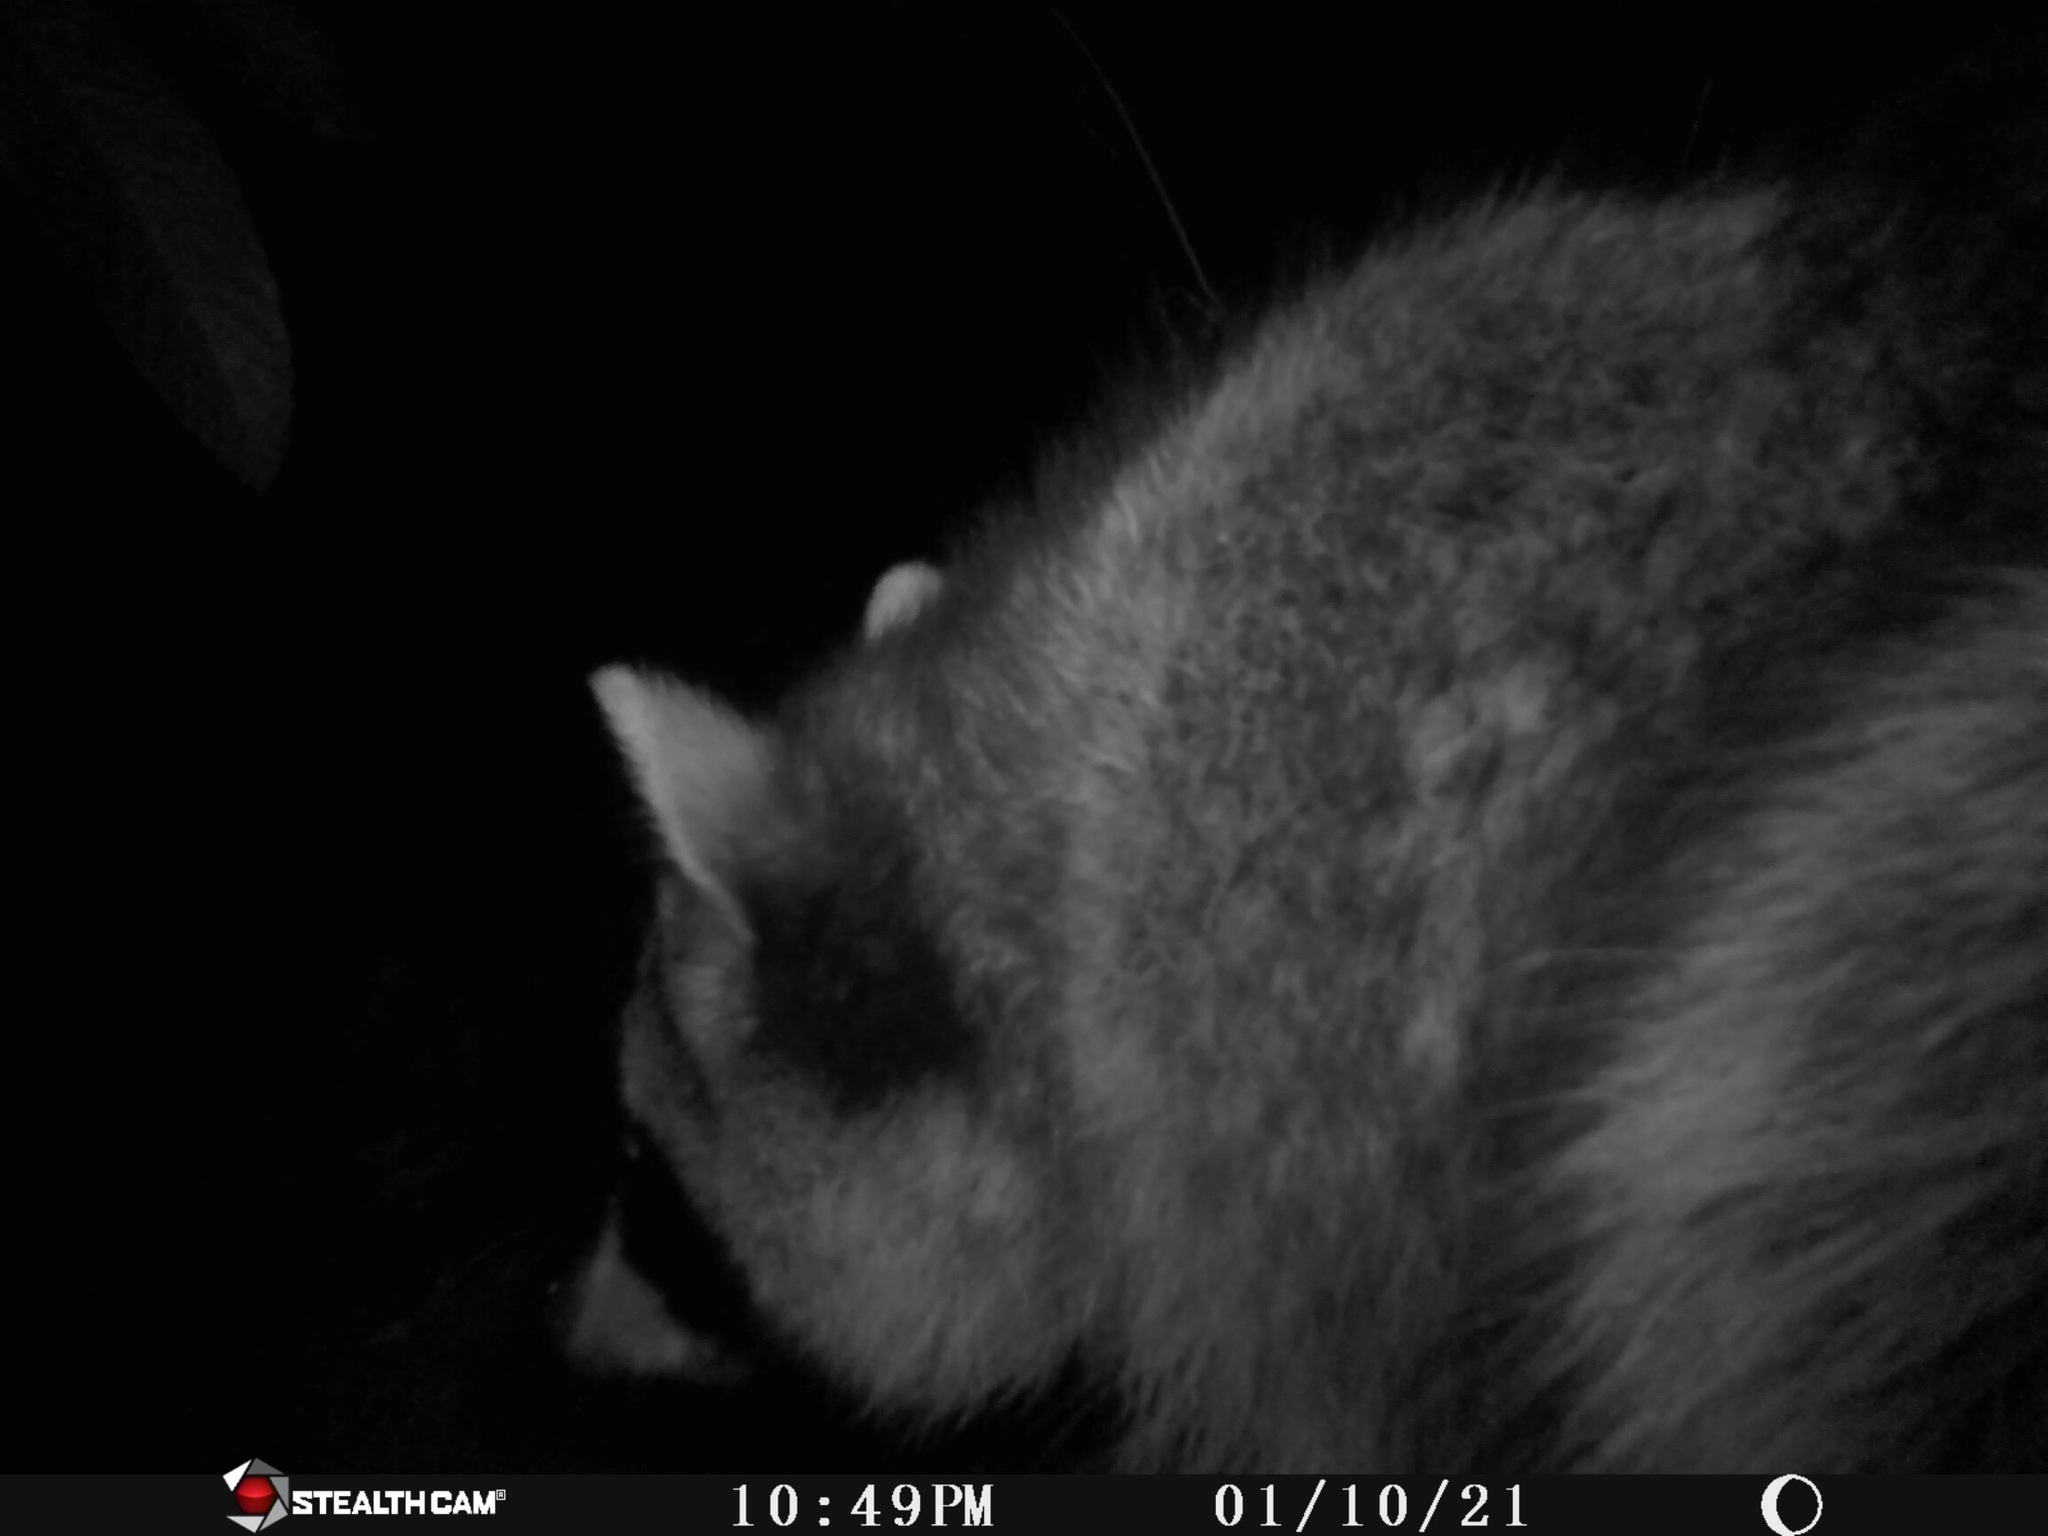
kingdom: Animalia
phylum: Chordata
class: Mammalia
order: Carnivora
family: Procyonidae
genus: Procyon
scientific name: Procyon lotor
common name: Raccoon
